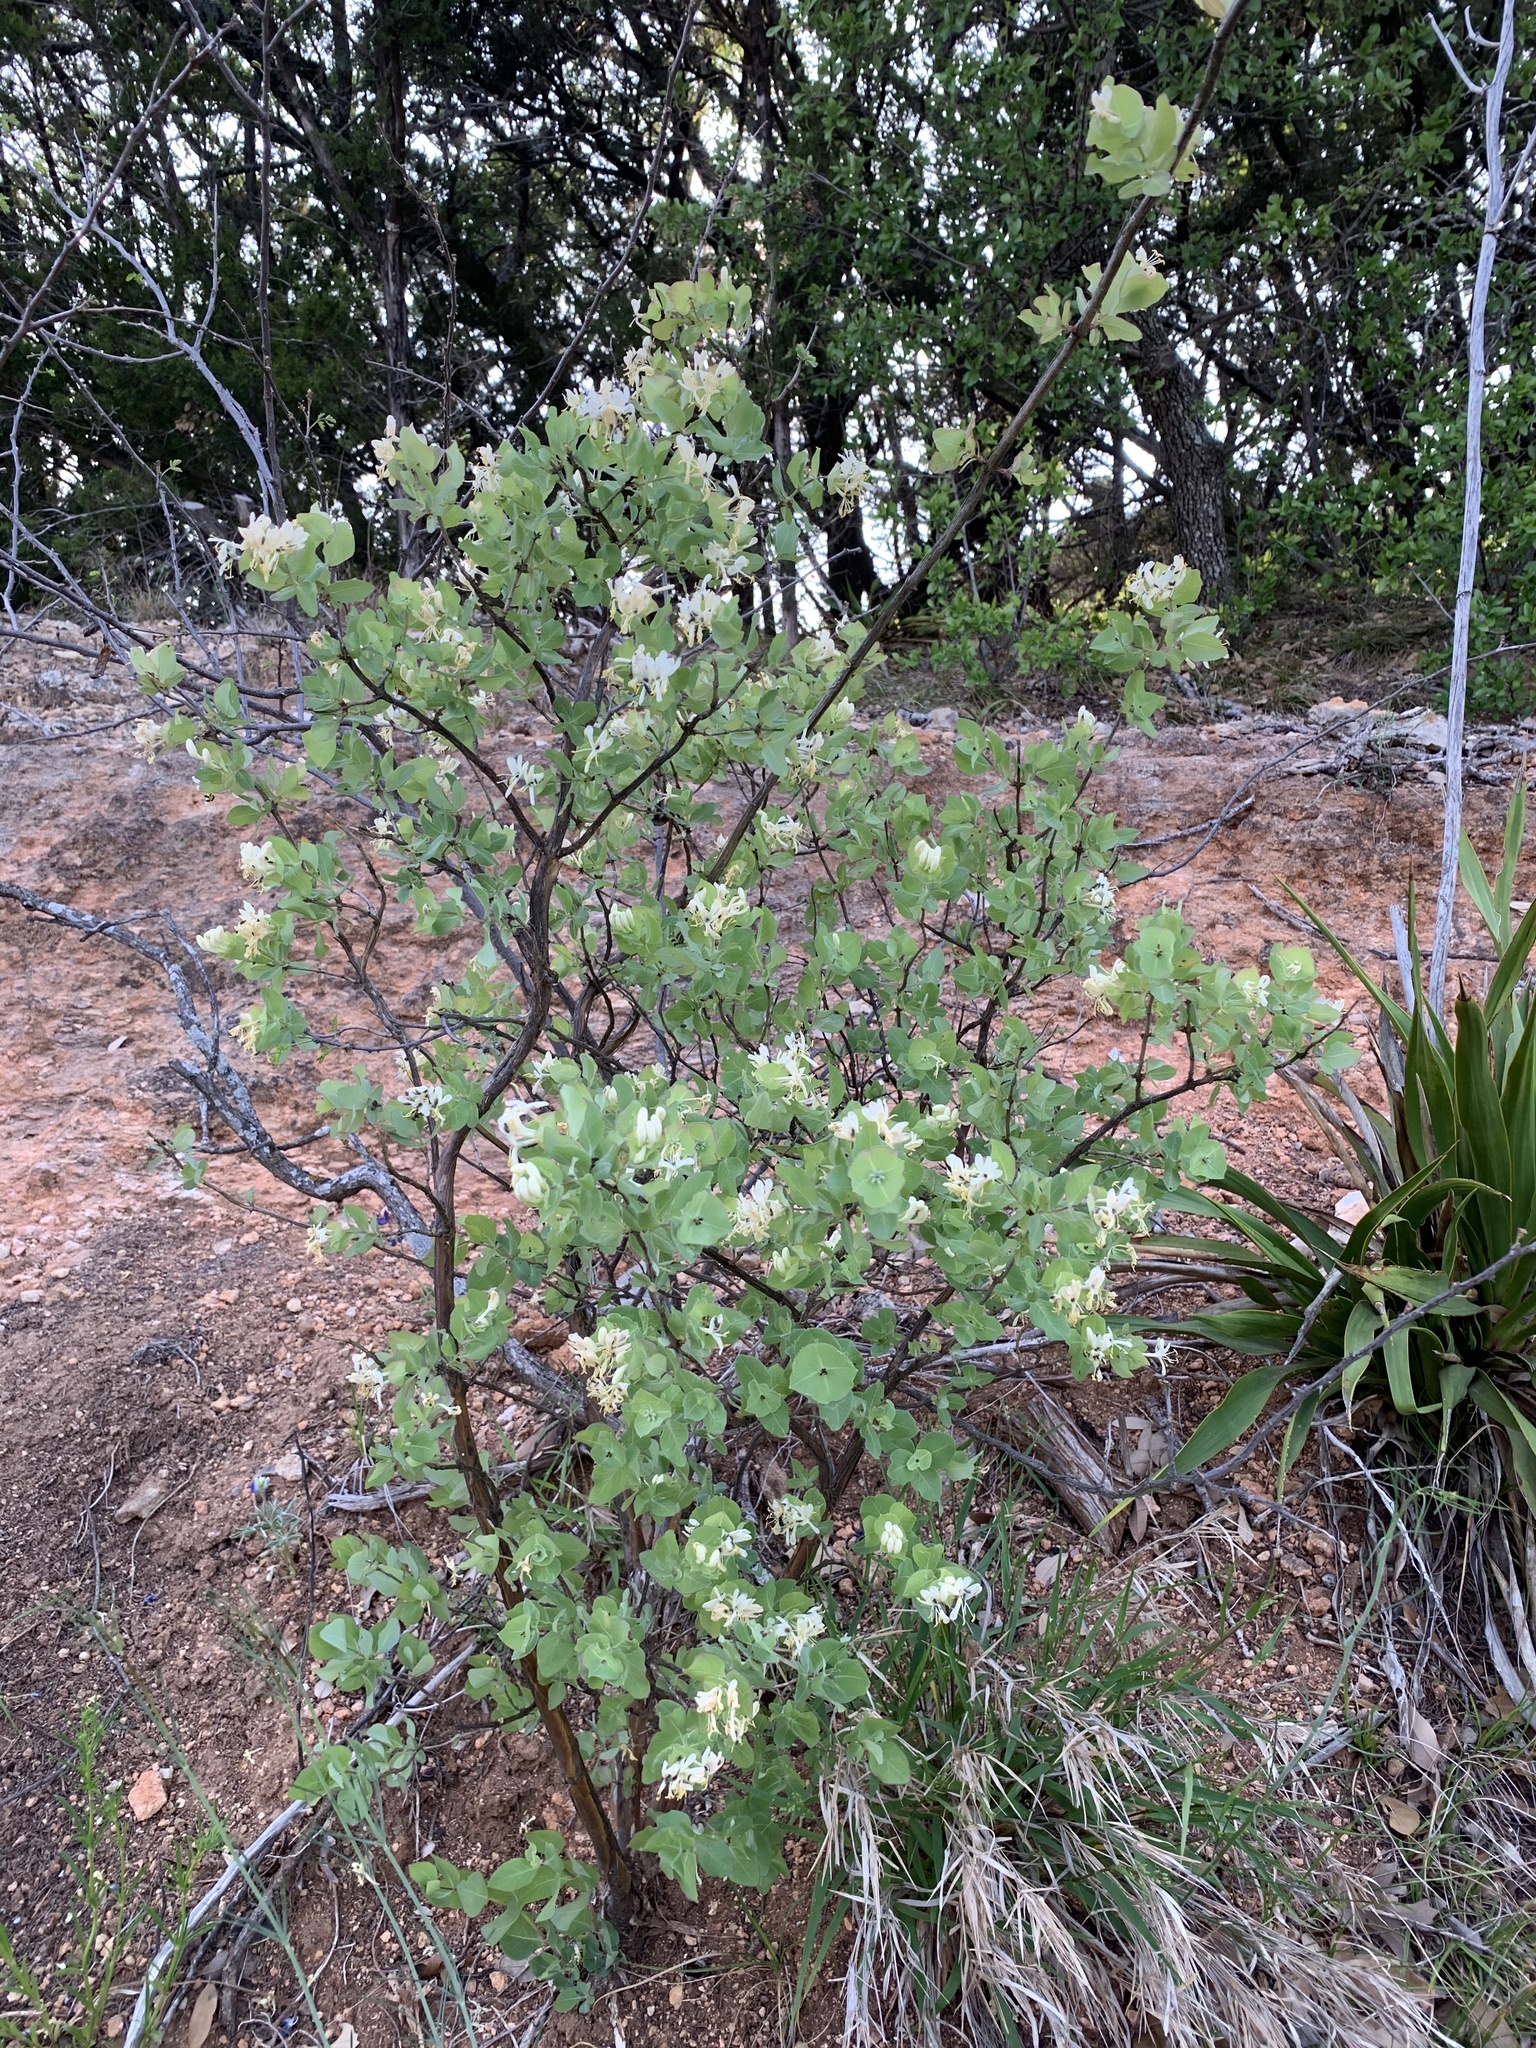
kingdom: Plantae
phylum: Tracheophyta
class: Magnoliopsida
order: Dipsacales
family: Caprifoliaceae
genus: Lonicera
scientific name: Lonicera albiflora
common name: White honeysuckle
